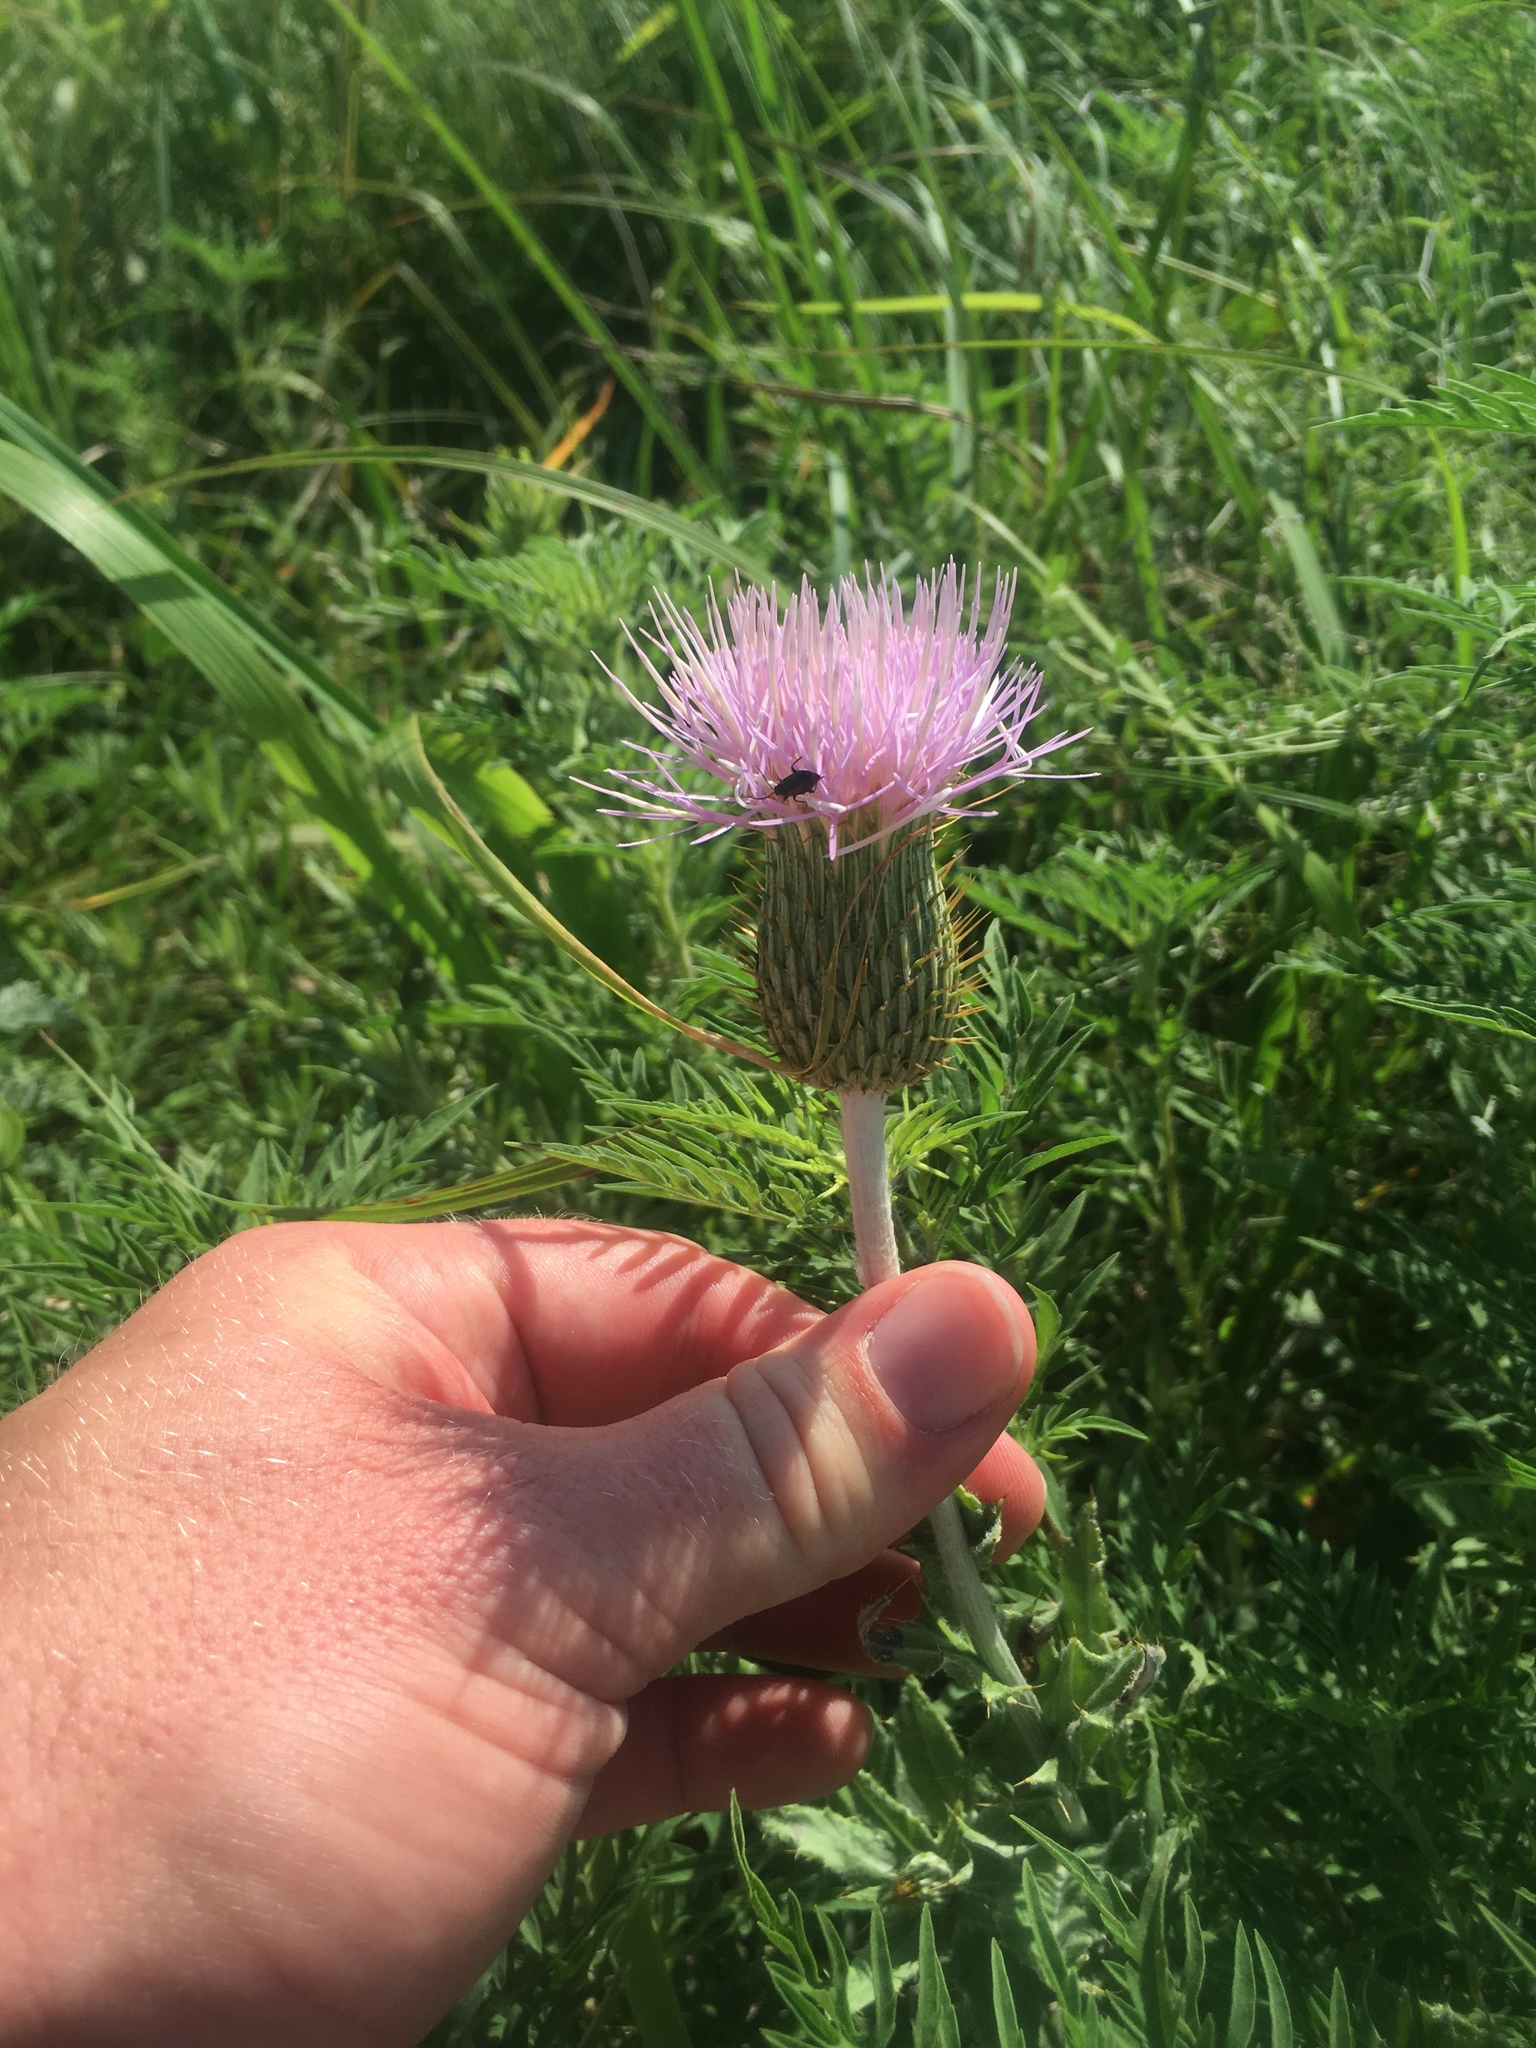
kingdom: Plantae
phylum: Tracheophyta
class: Magnoliopsida
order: Asterales
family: Asteraceae
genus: Cirsium
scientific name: Cirsium undulatum
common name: Pasture thistle
